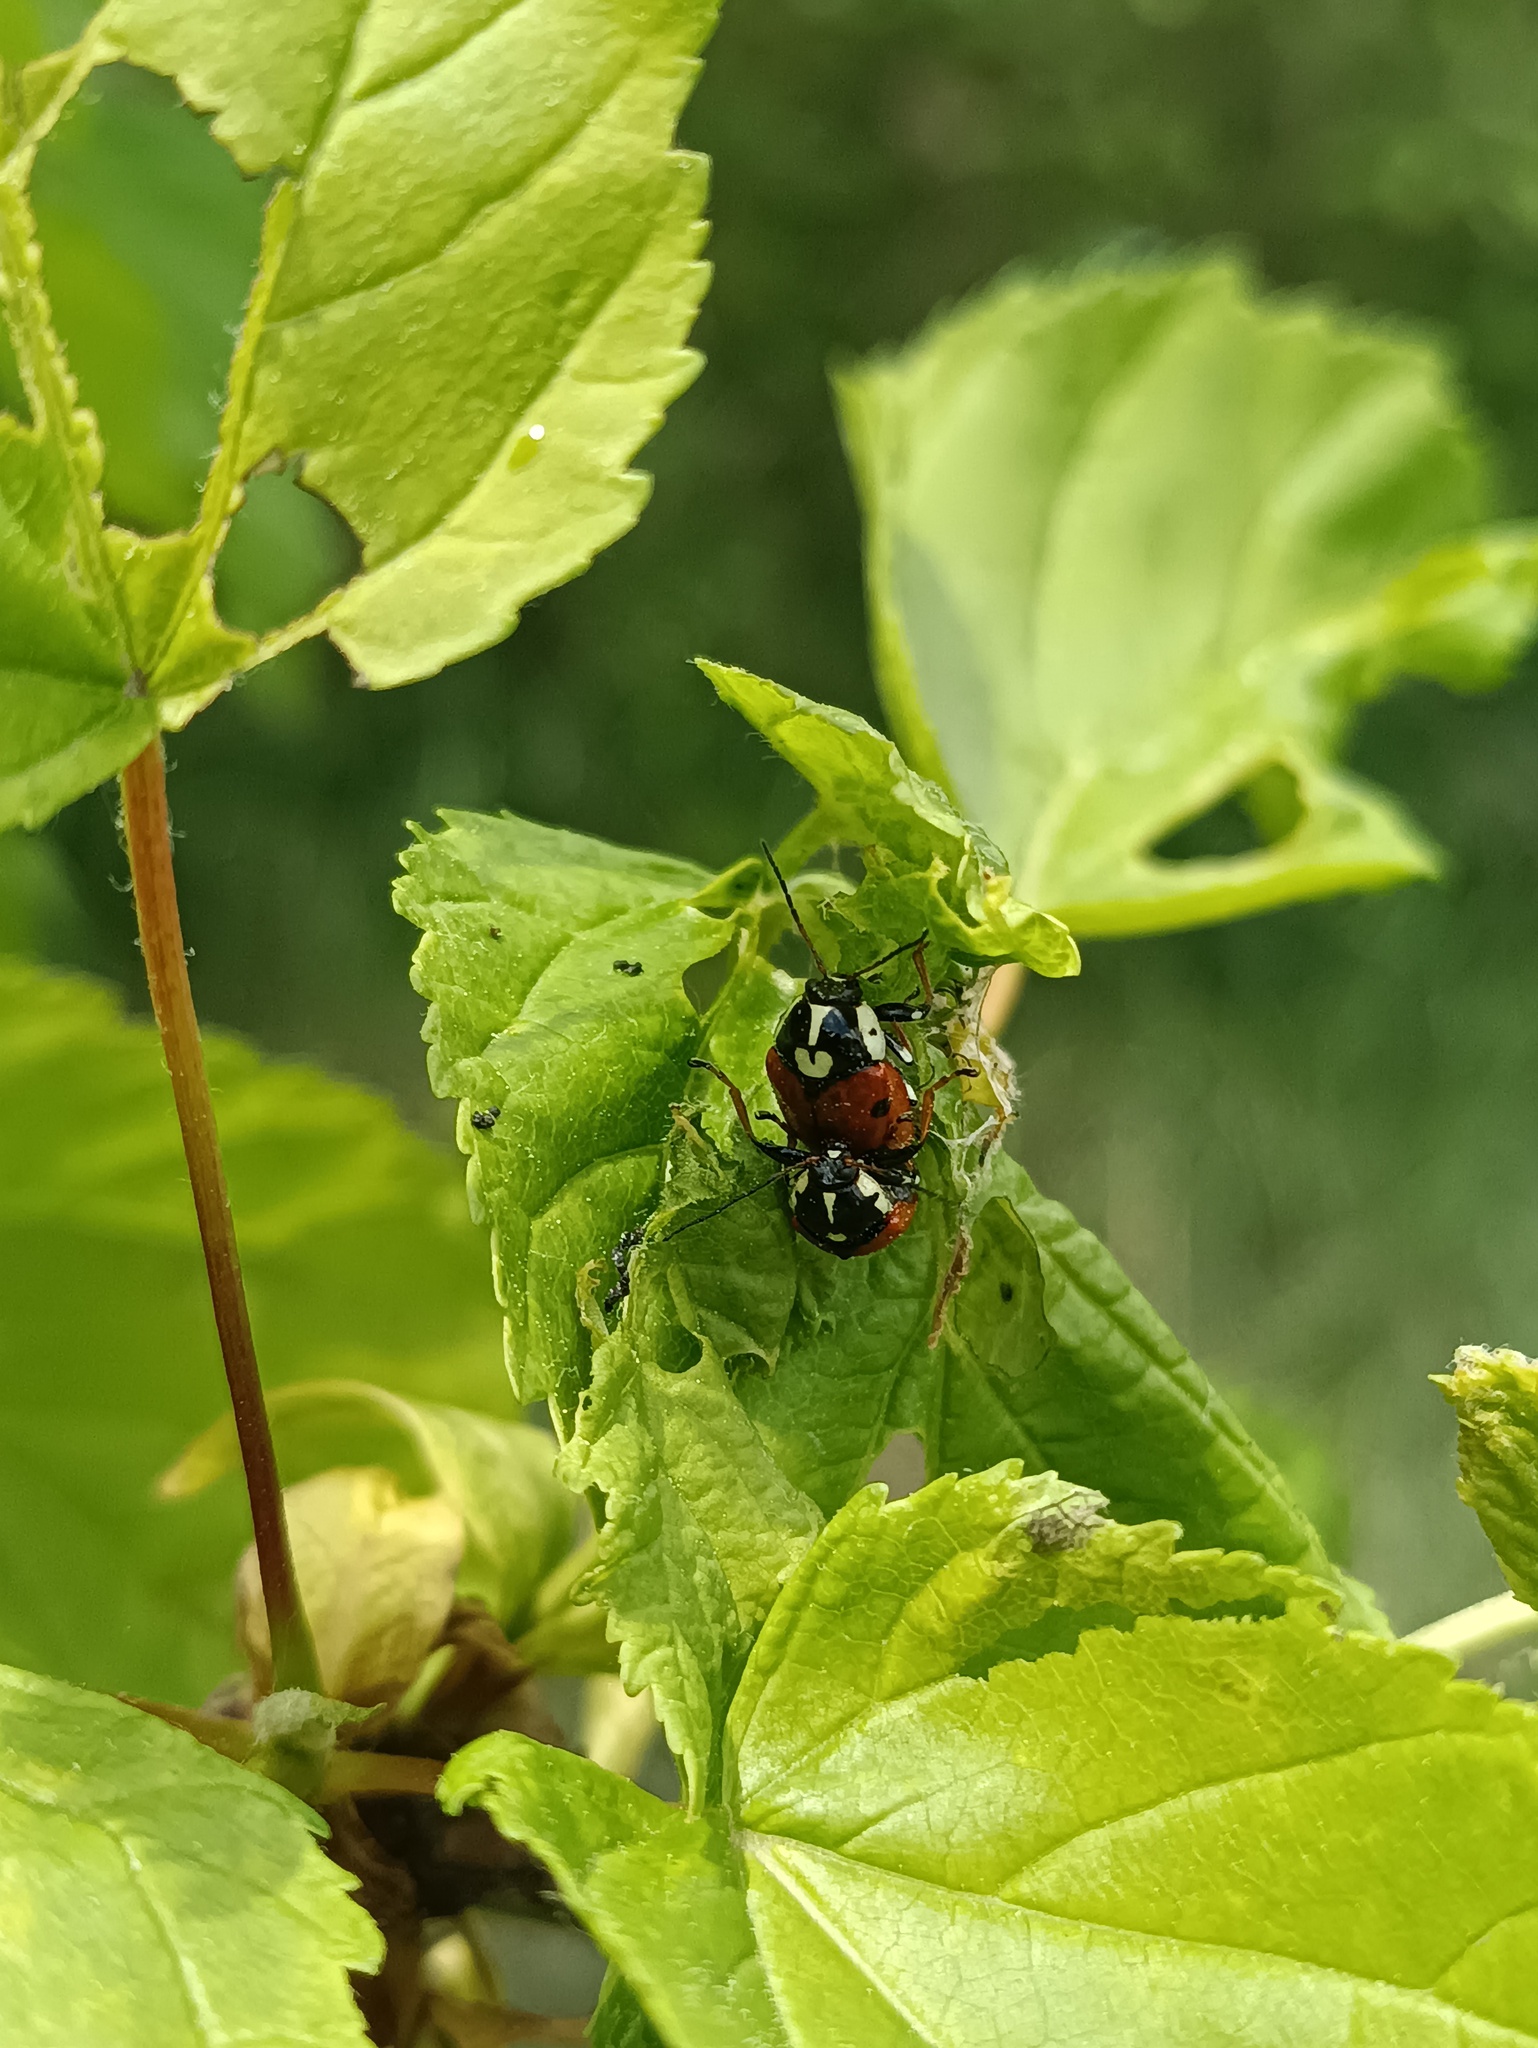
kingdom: Animalia
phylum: Arthropoda
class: Insecta
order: Coleoptera
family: Chrysomelidae
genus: Cryptocephalus
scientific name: Cryptocephalus cordiger
